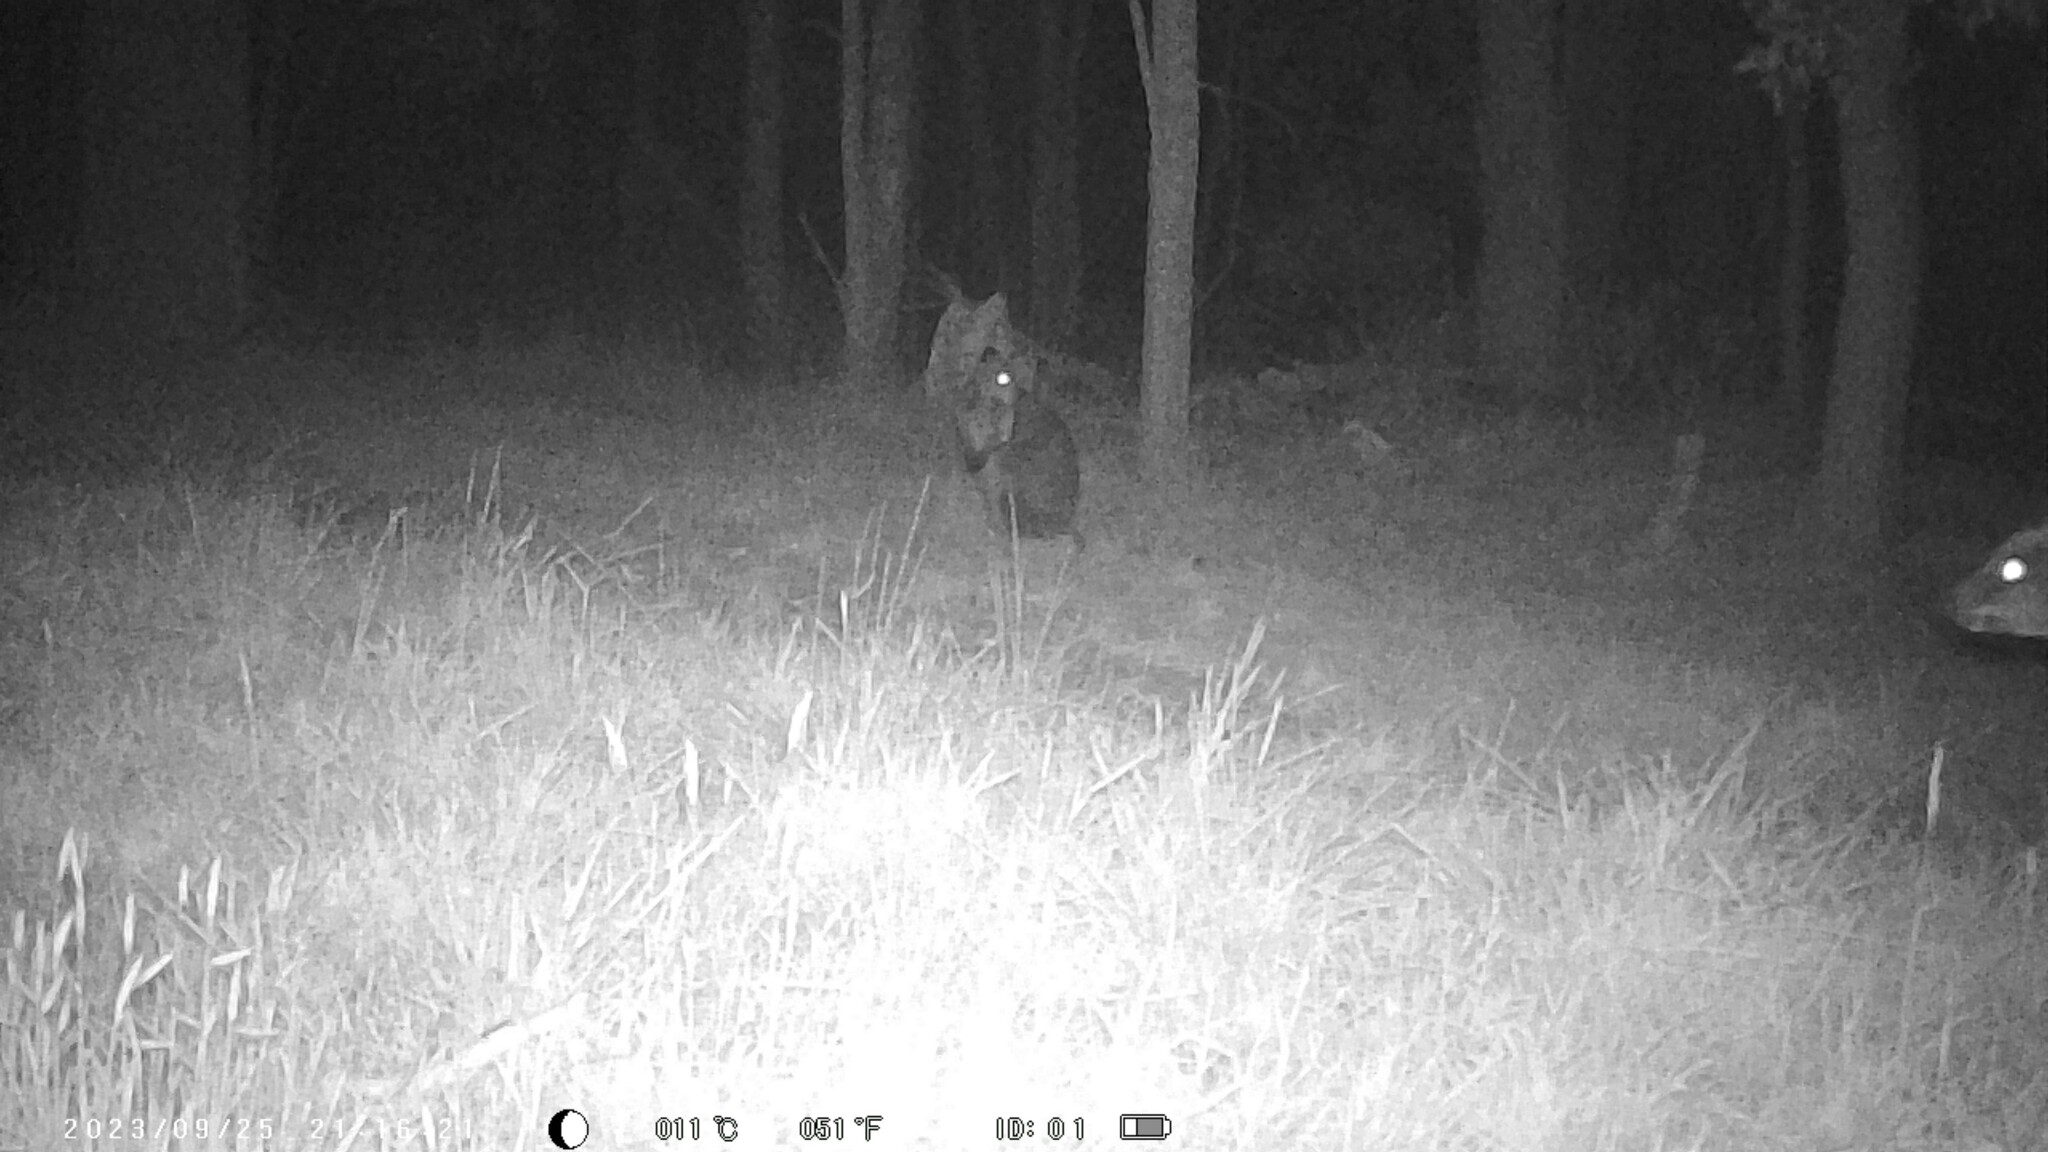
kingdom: Animalia
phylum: Chordata
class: Mammalia
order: Diprotodontia
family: Macropodidae
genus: Wallabia
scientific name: Wallabia bicolor
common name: Swamp wallaby
